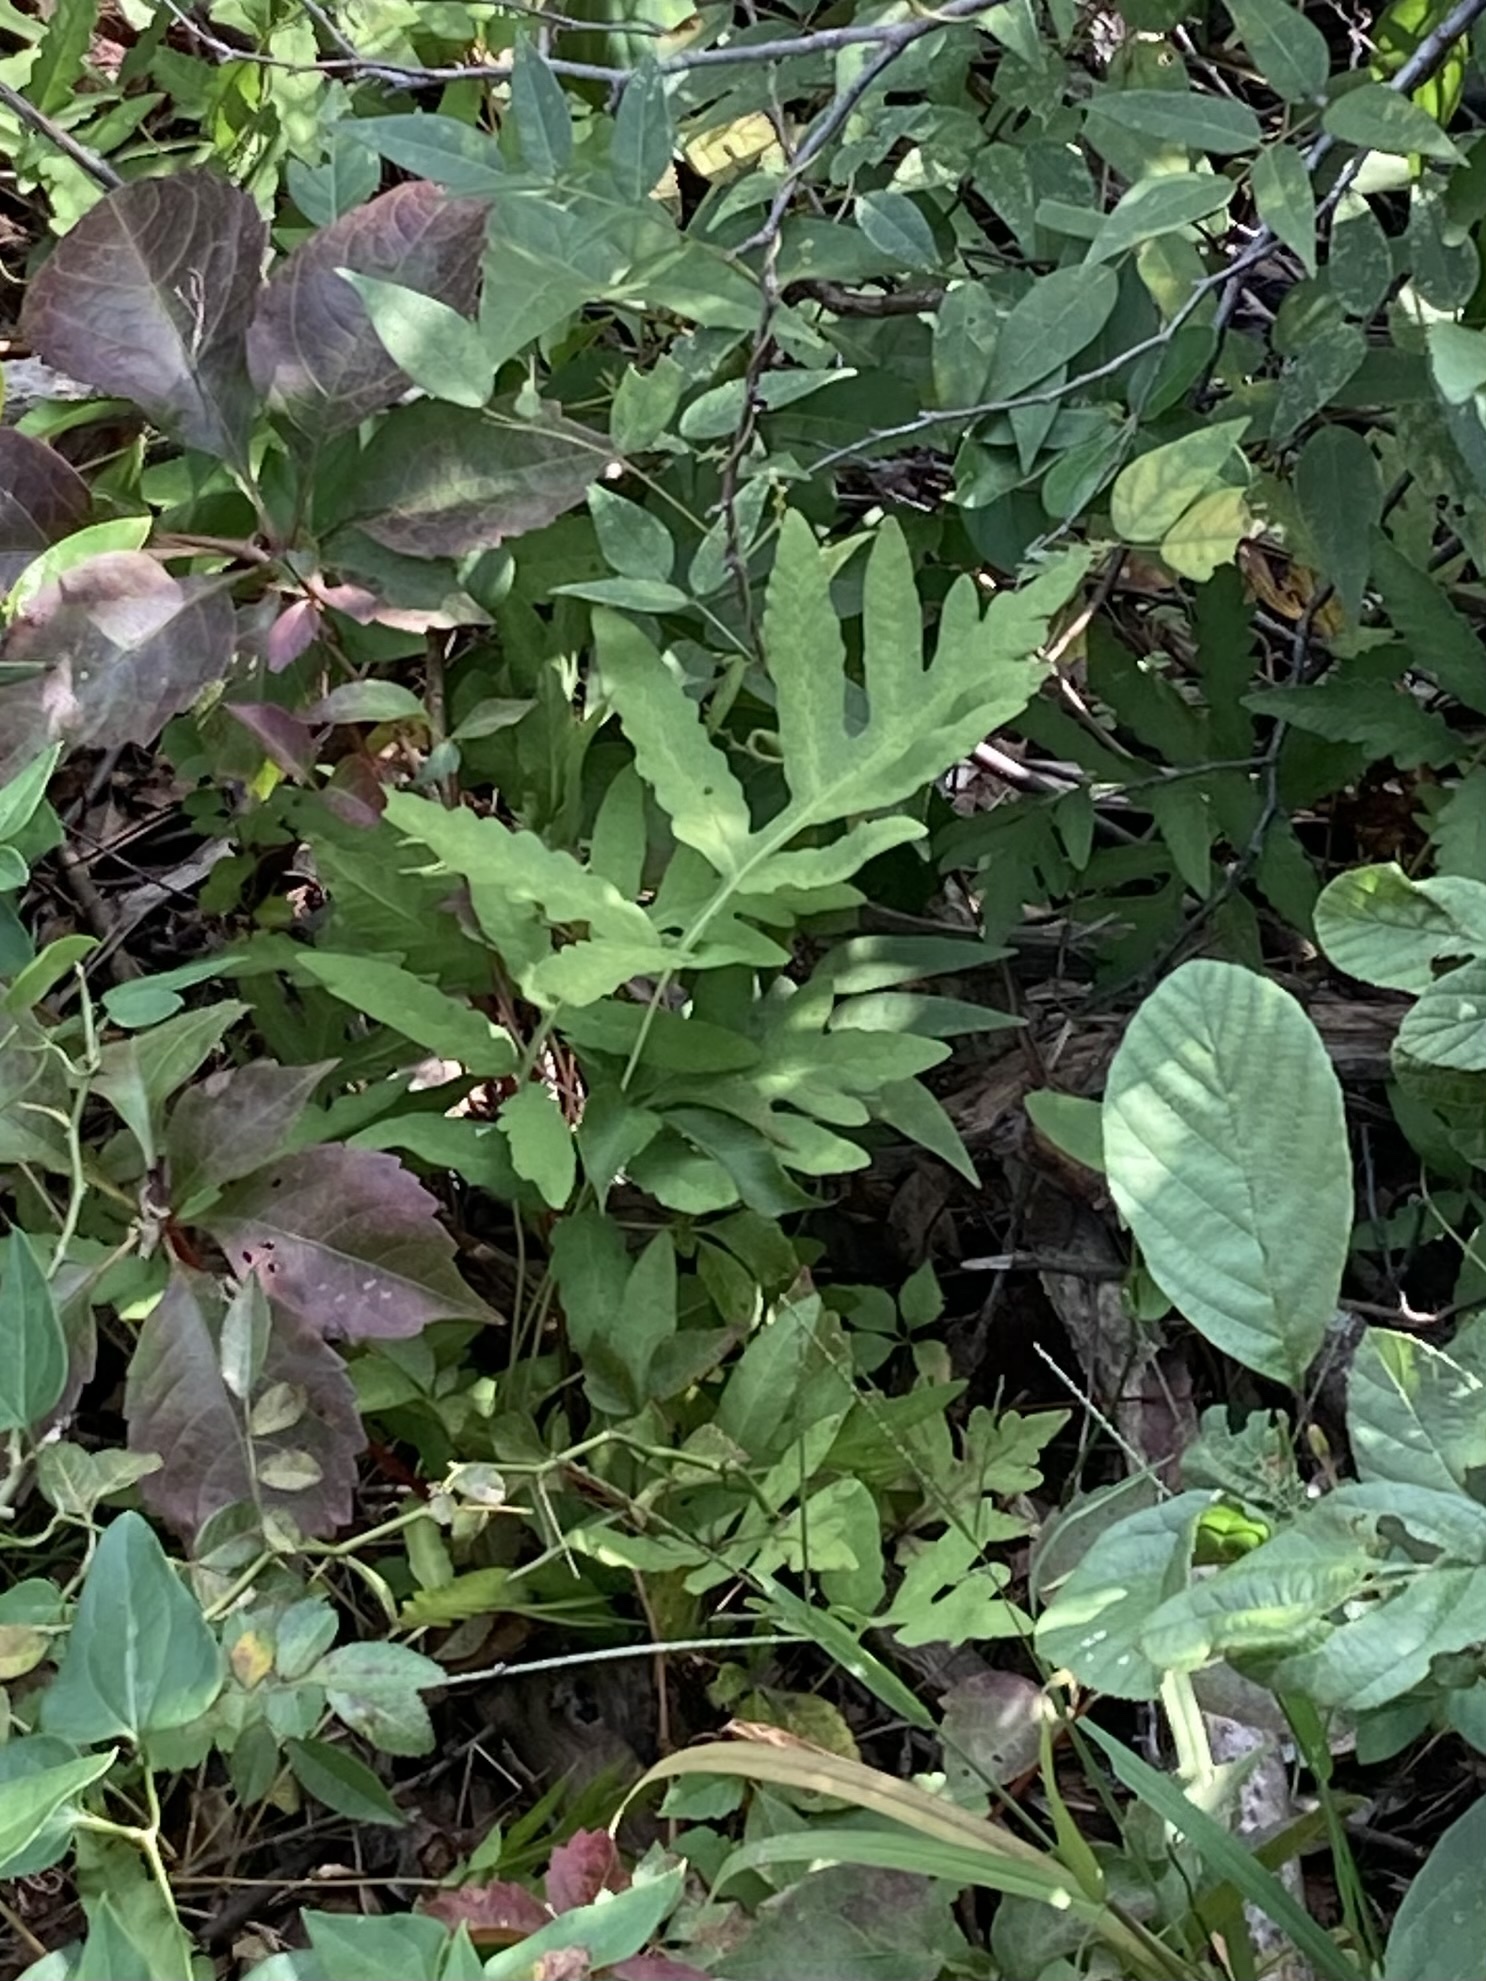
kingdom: Plantae
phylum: Tracheophyta
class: Polypodiopsida
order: Polypodiales
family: Onocleaceae
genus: Onoclea
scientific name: Onoclea sensibilis
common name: Sensitive fern
